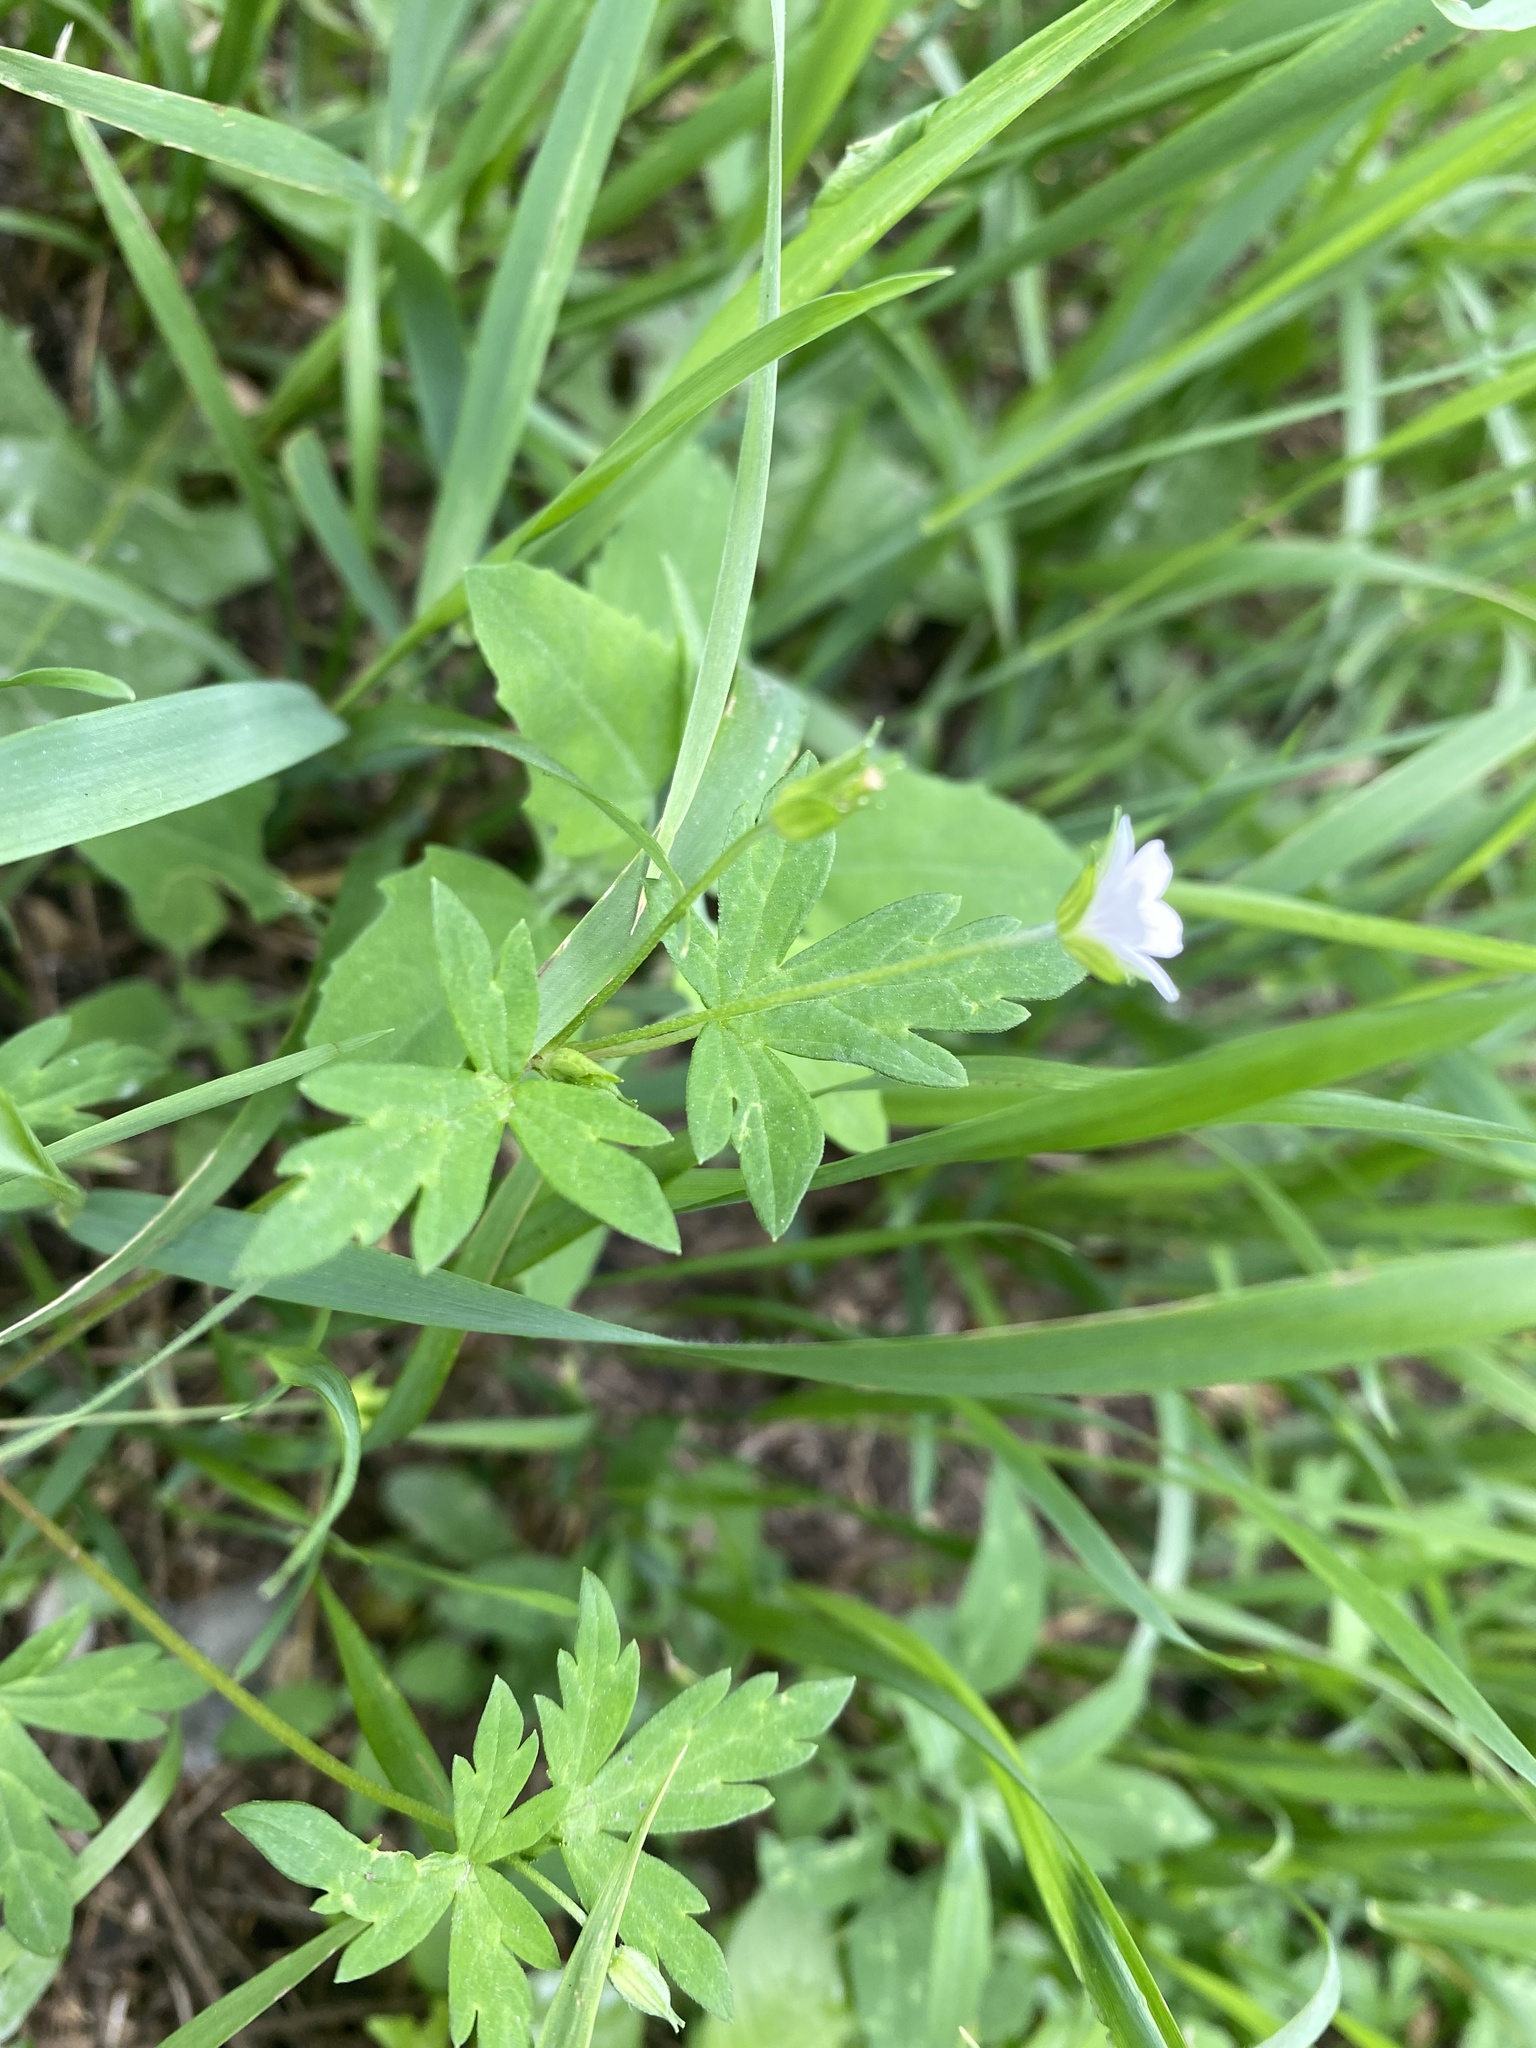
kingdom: Plantae
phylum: Tracheophyta
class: Magnoliopsida
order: Geraniales
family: Geraniaceae
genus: Geranium
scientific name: Geranium sibiricum
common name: Siberian crane's-bill
